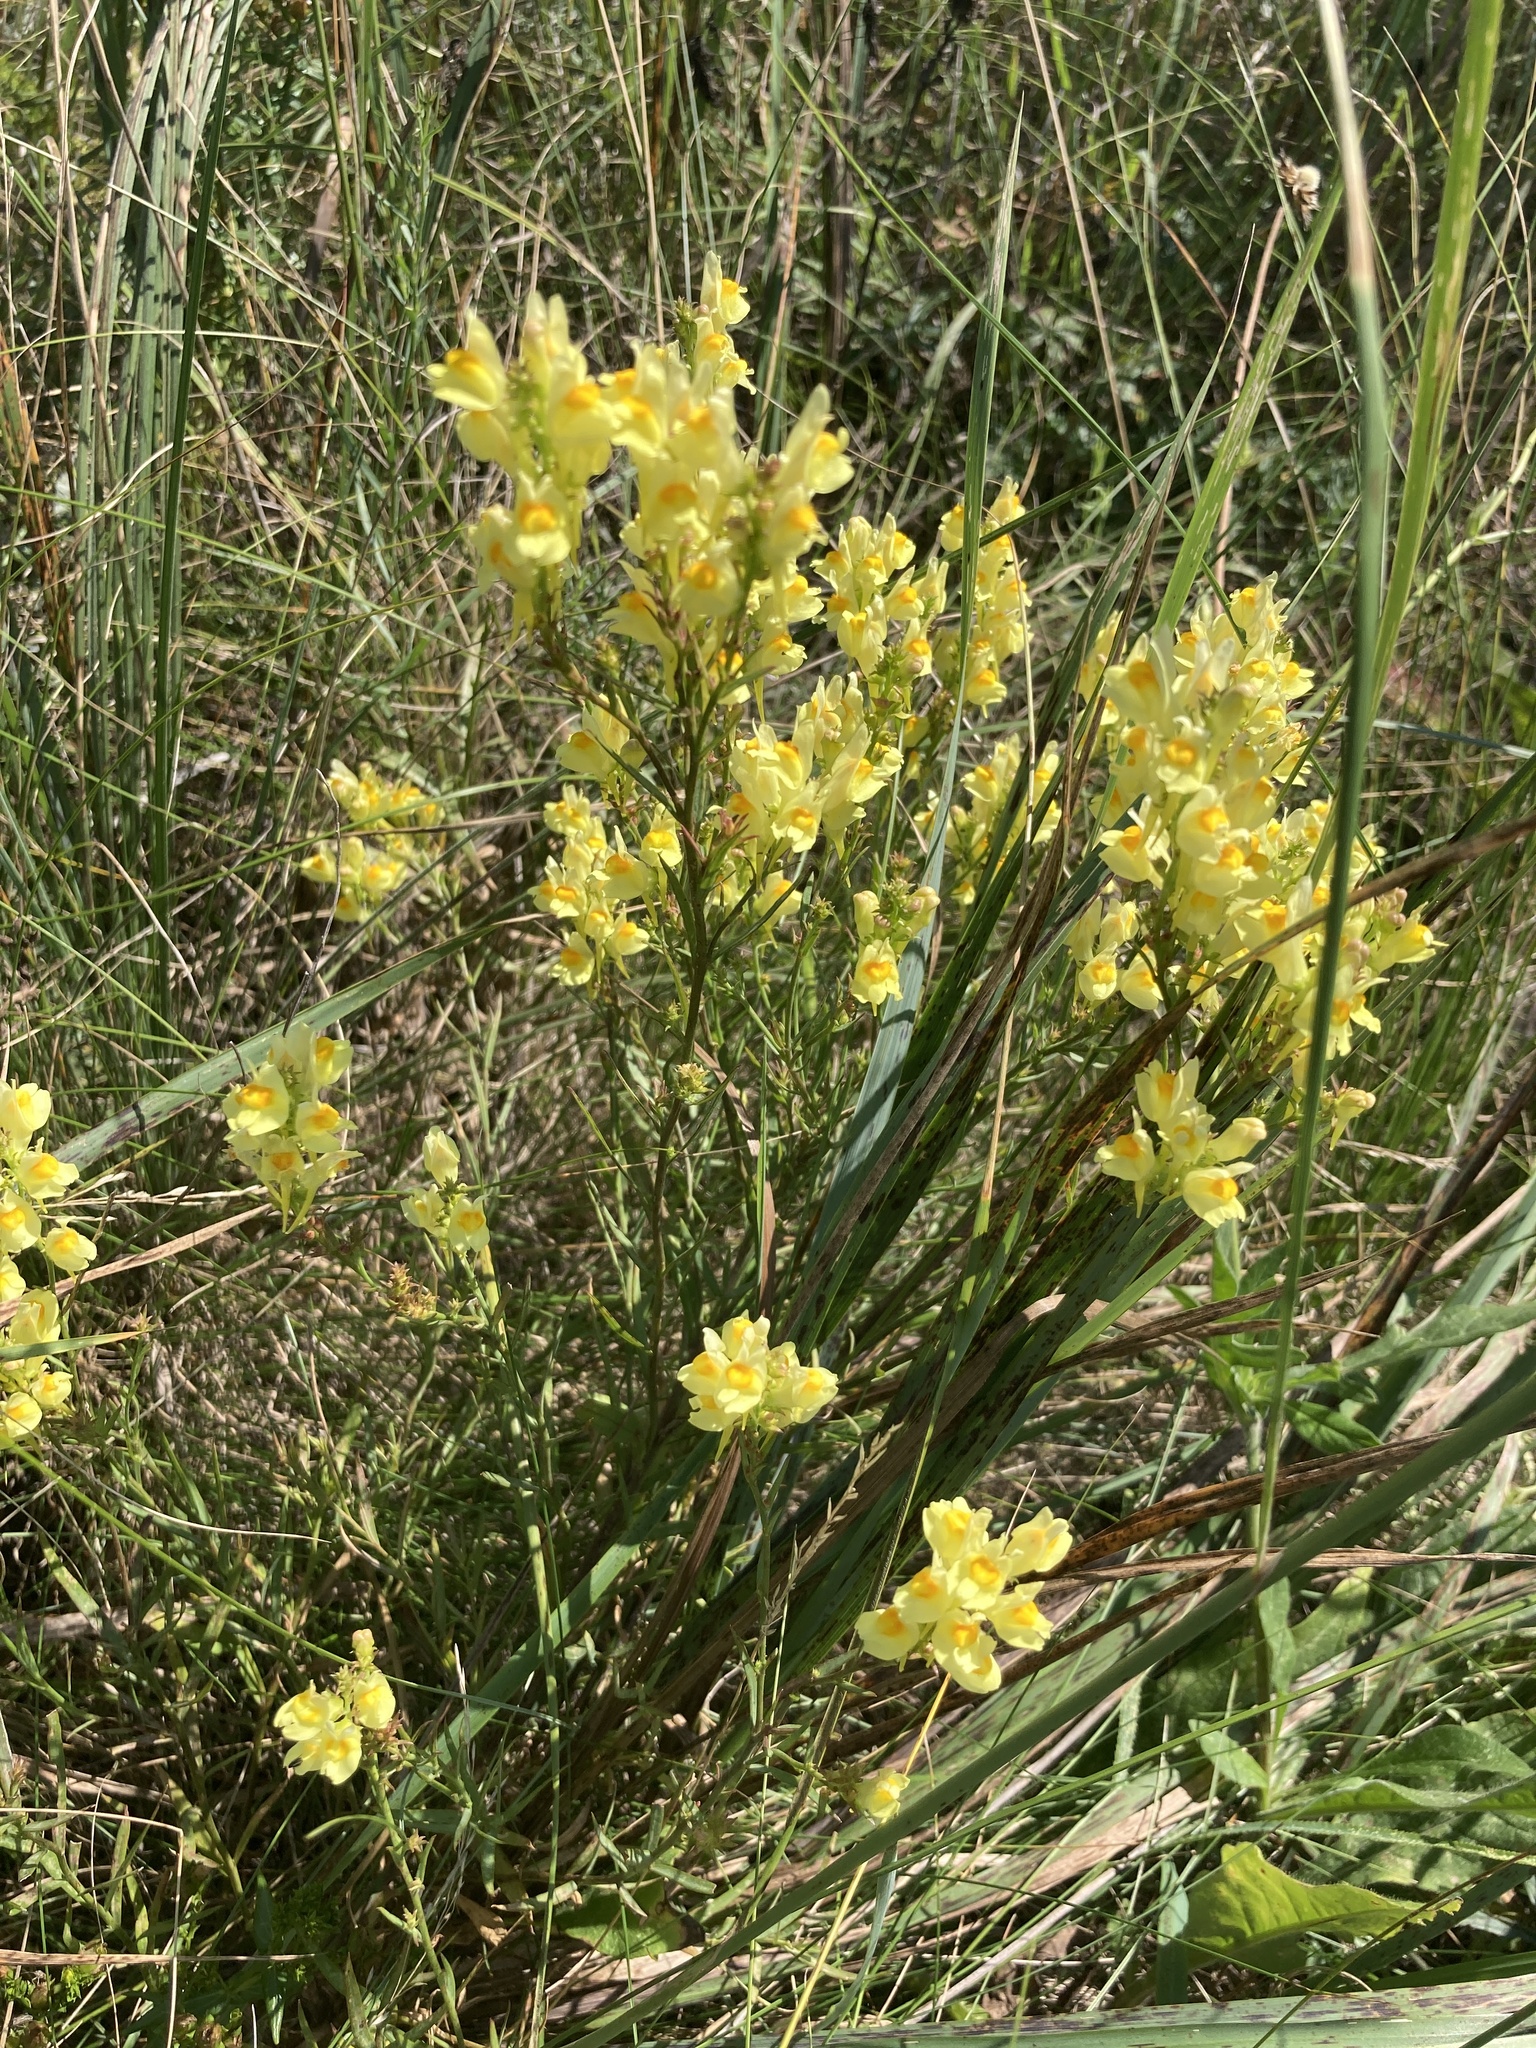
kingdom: Plantae
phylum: Tracheophyta
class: Magnoliopsida
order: Lamiales
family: Plantaginaceae
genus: Linaria
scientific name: Linaria vulgaris
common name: Butter and eggs
